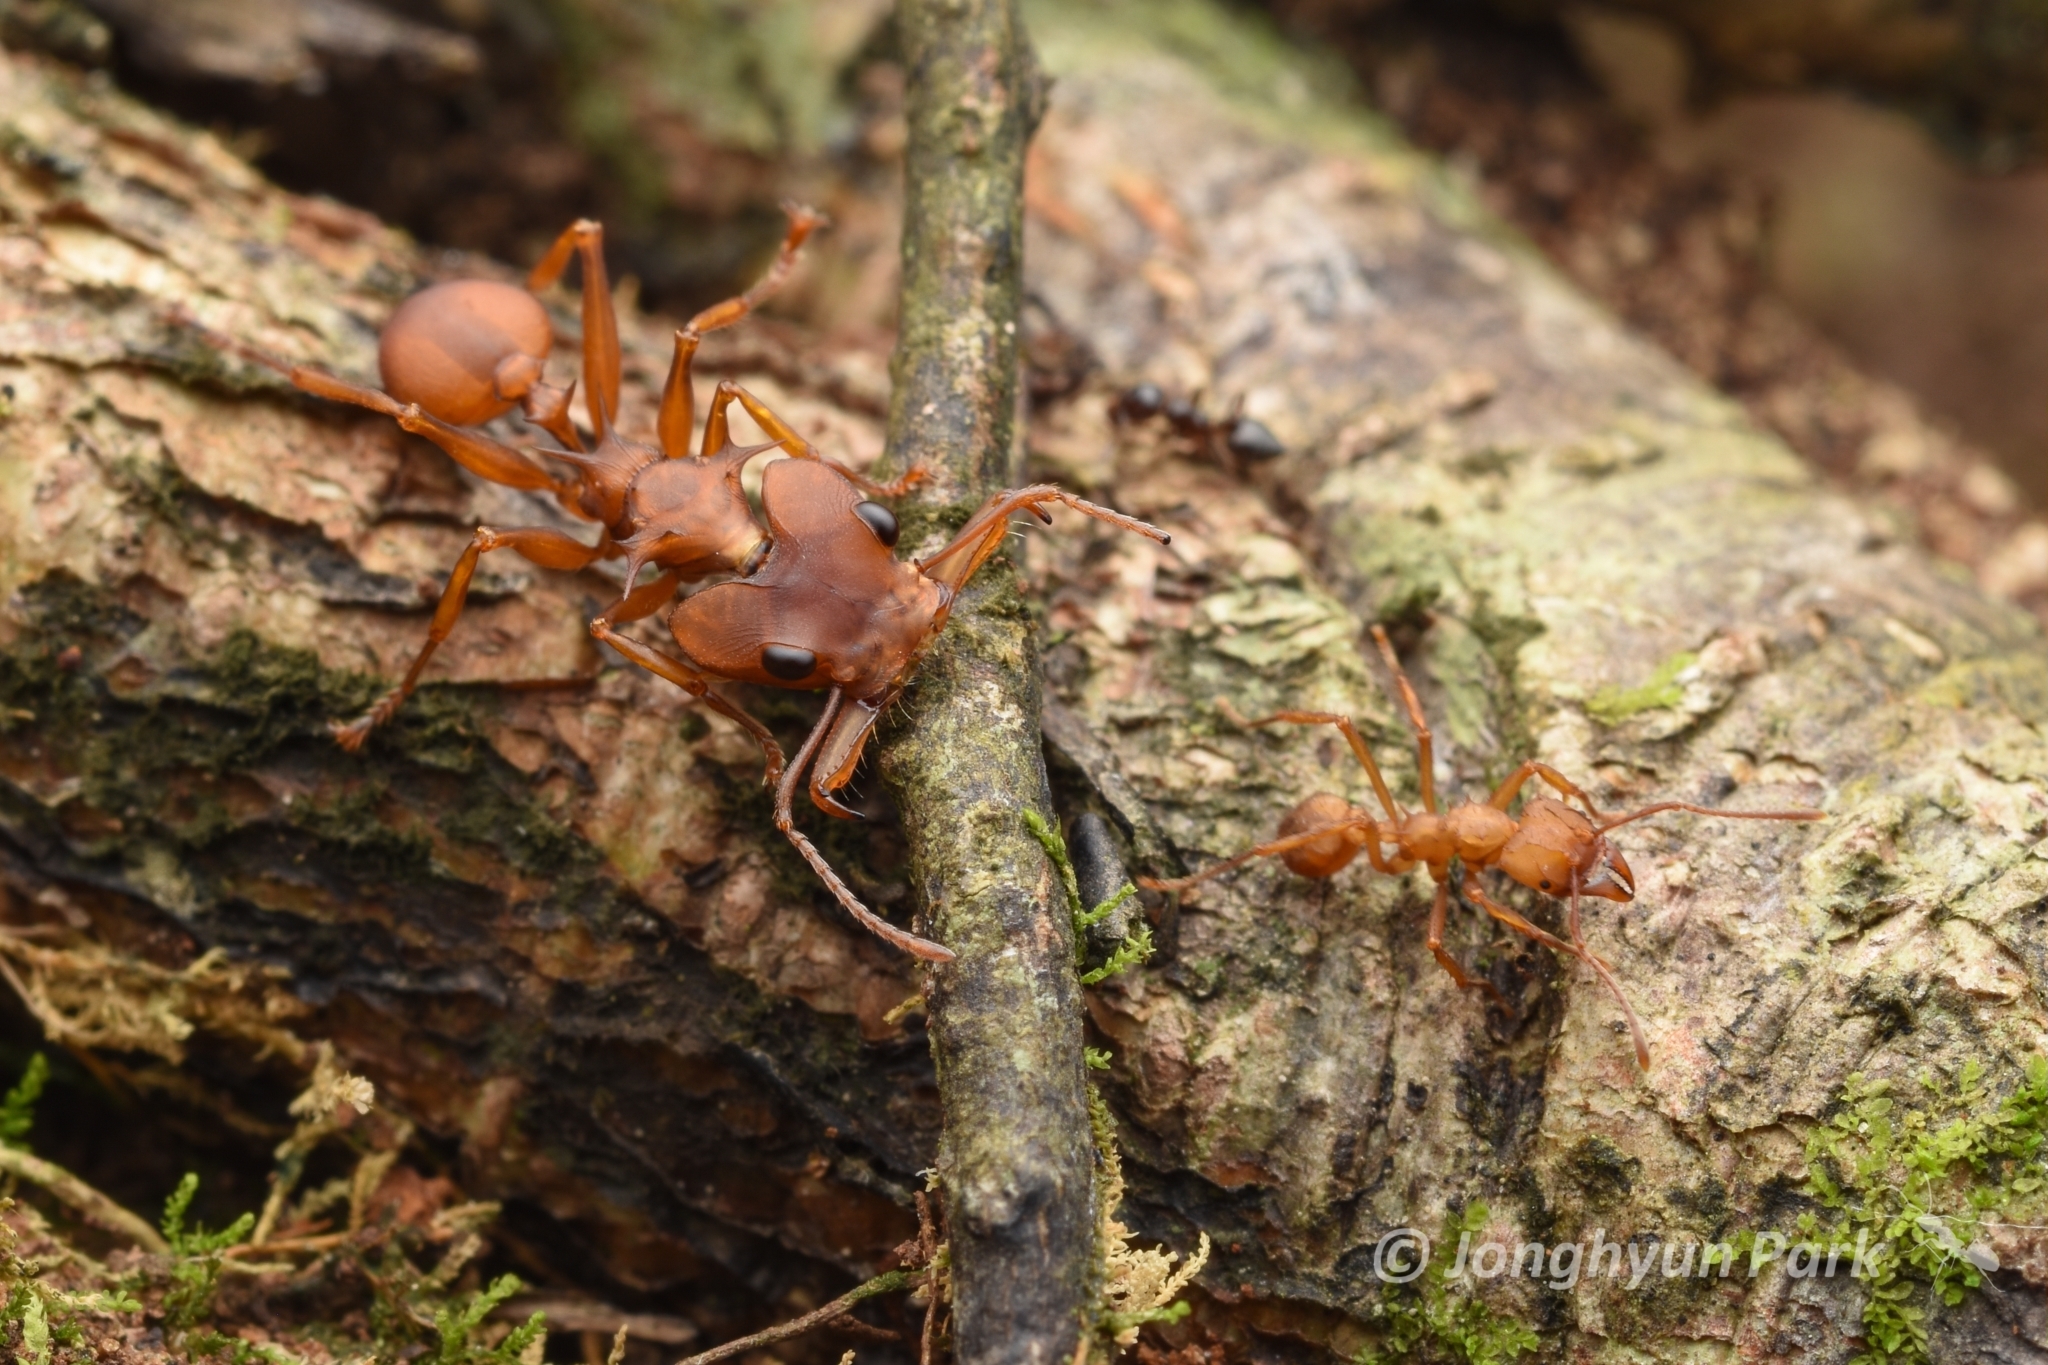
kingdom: Animalia
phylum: Arthropoda
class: Insecta
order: Hymenoptera
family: Formicidae
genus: Daceton
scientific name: Daceton armigerum
